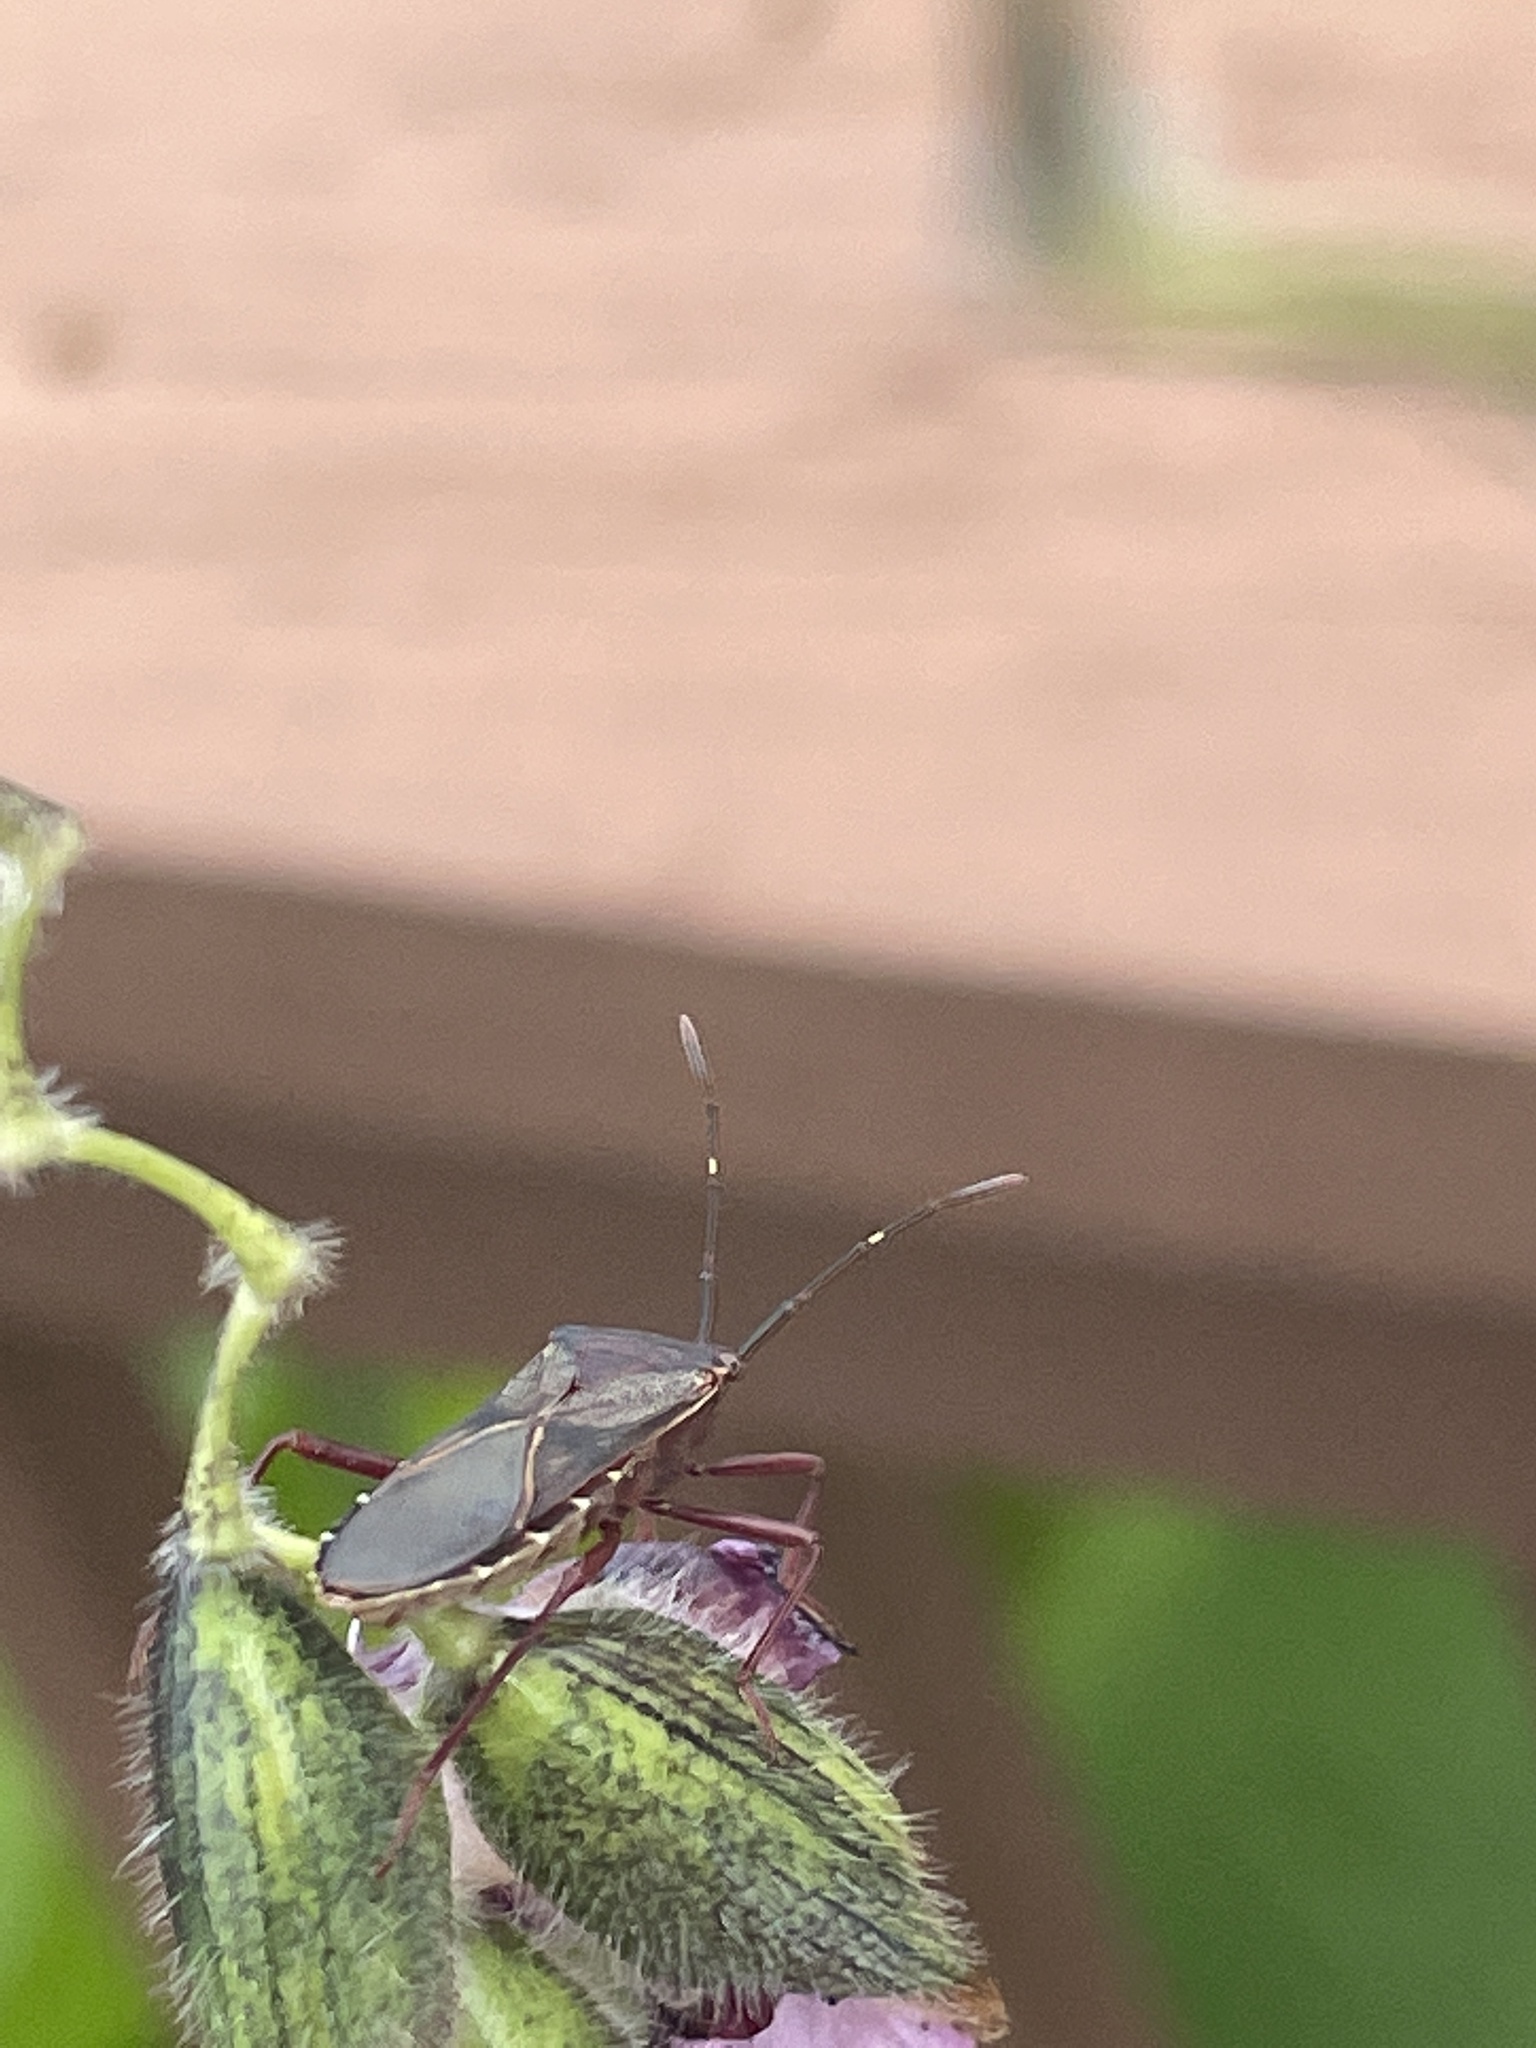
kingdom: Animalia
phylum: Arthropoda
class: Insecta
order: Hemiptera
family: Coreidae
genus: Namacus
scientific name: Namacus annulicornis
